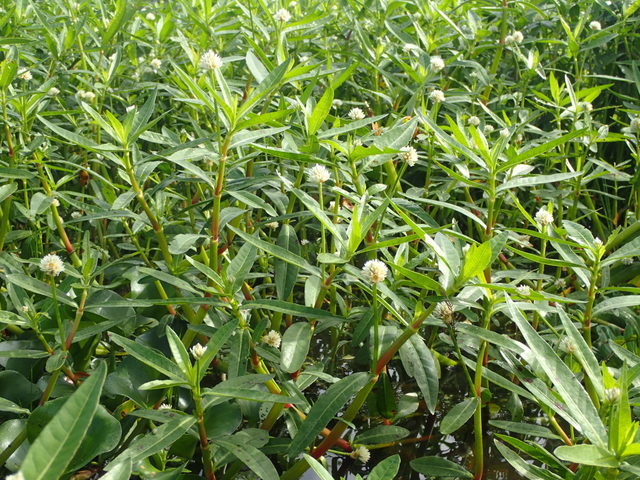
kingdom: Plantae
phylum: Tracheophyta
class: Magnoliopsida
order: Caryophyllales
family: Amaranthaceae
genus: Alternanthera
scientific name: Alternanthera philoxeroides
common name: Alligatorweed
